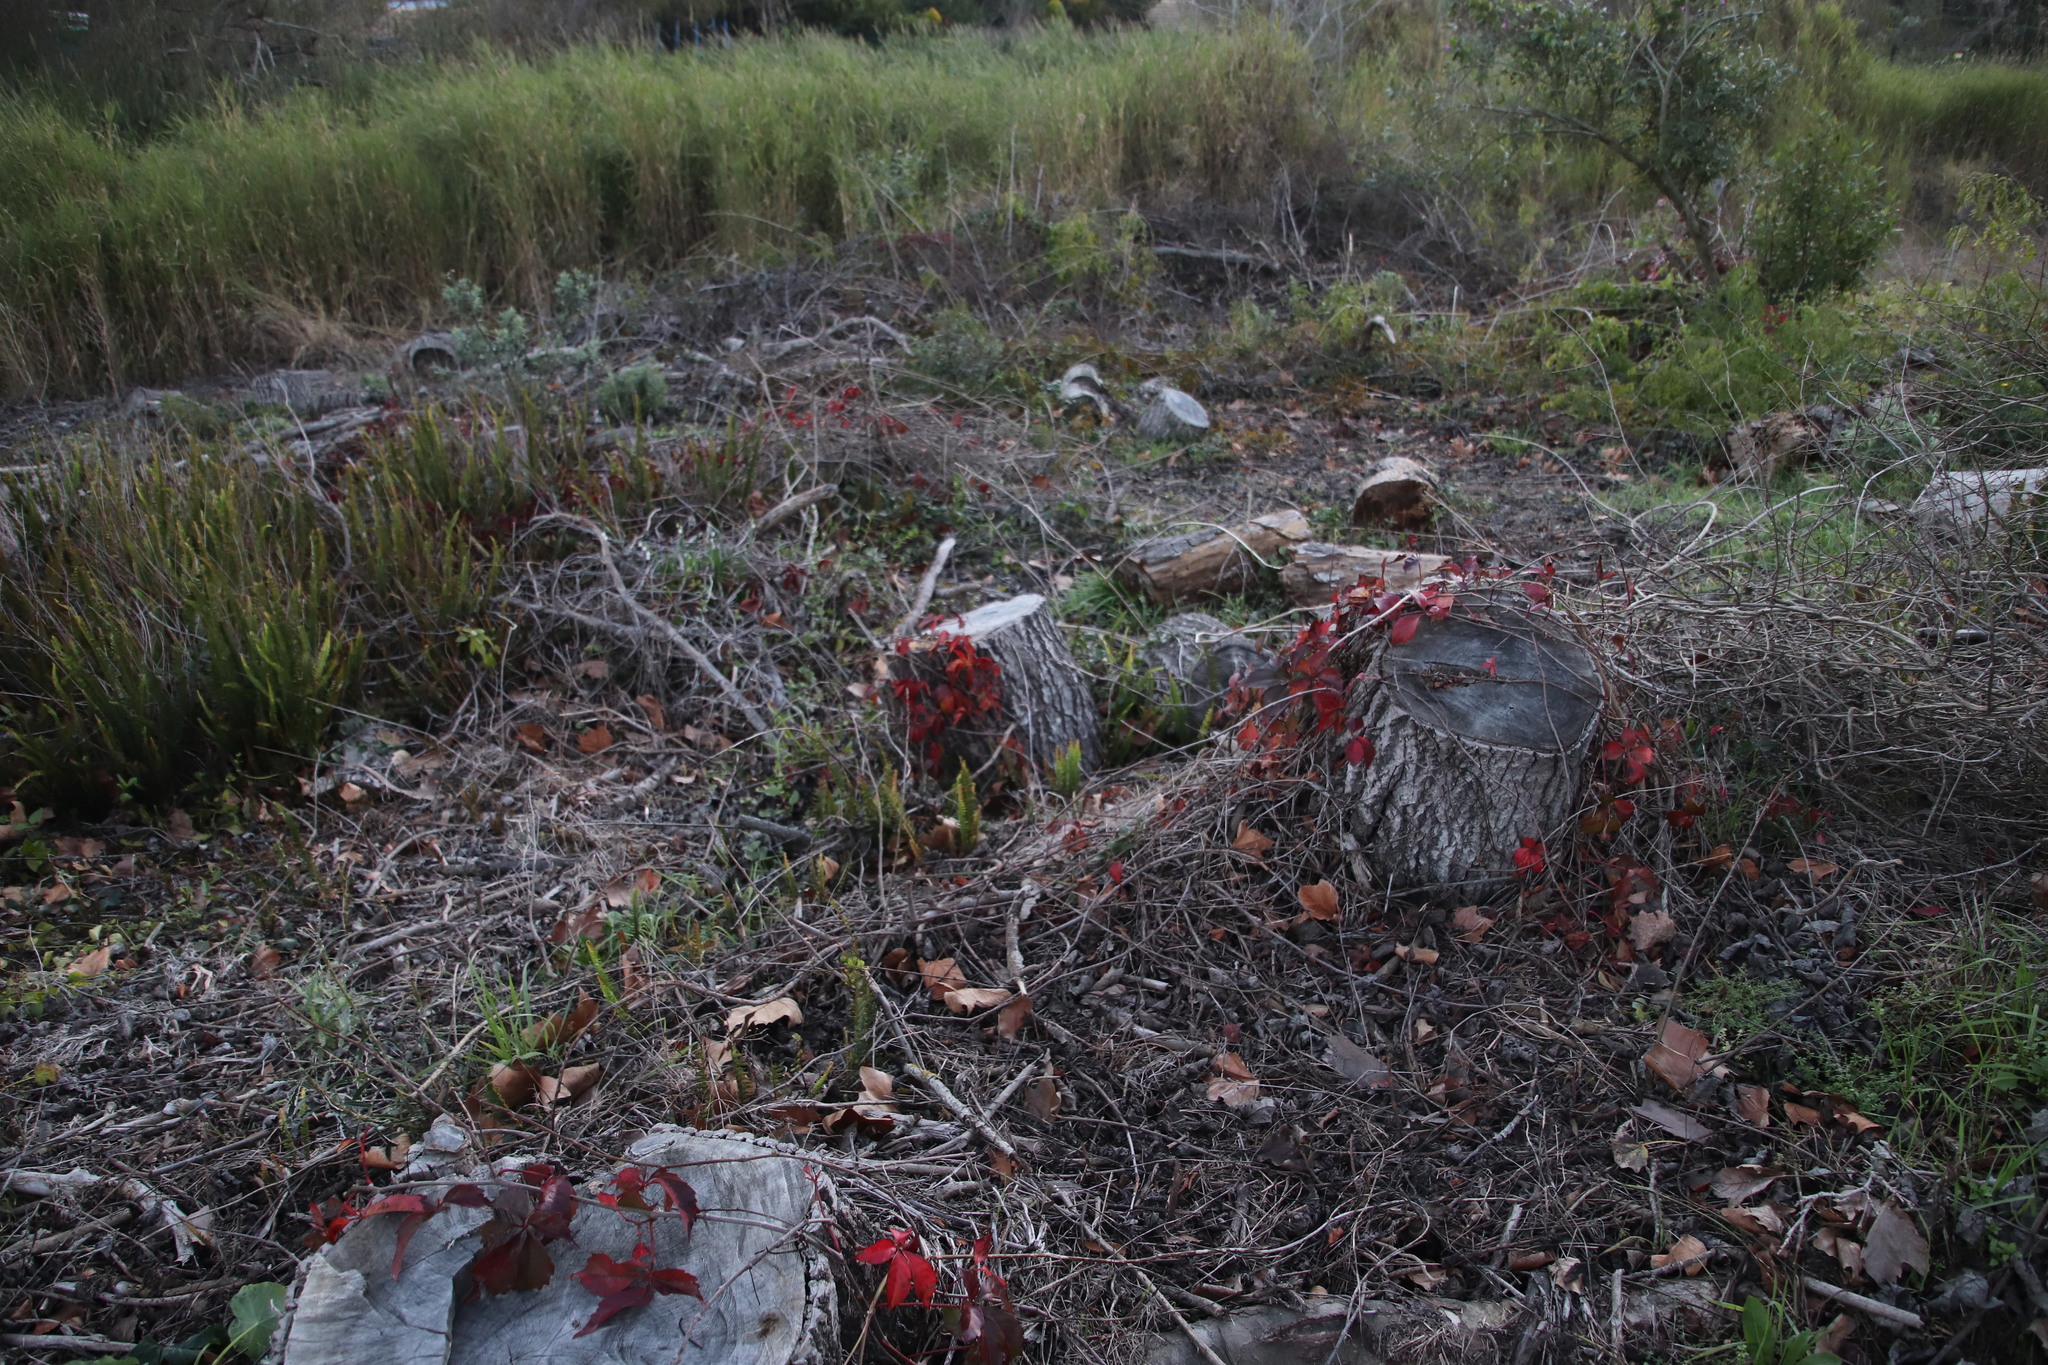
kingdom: Plantae
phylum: Tracheophyta
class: Magnoliopsida
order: Vitales
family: Vitaceae
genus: Parthenocissus
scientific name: Parthenocissus quinquefolia
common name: Virginia-creeper
